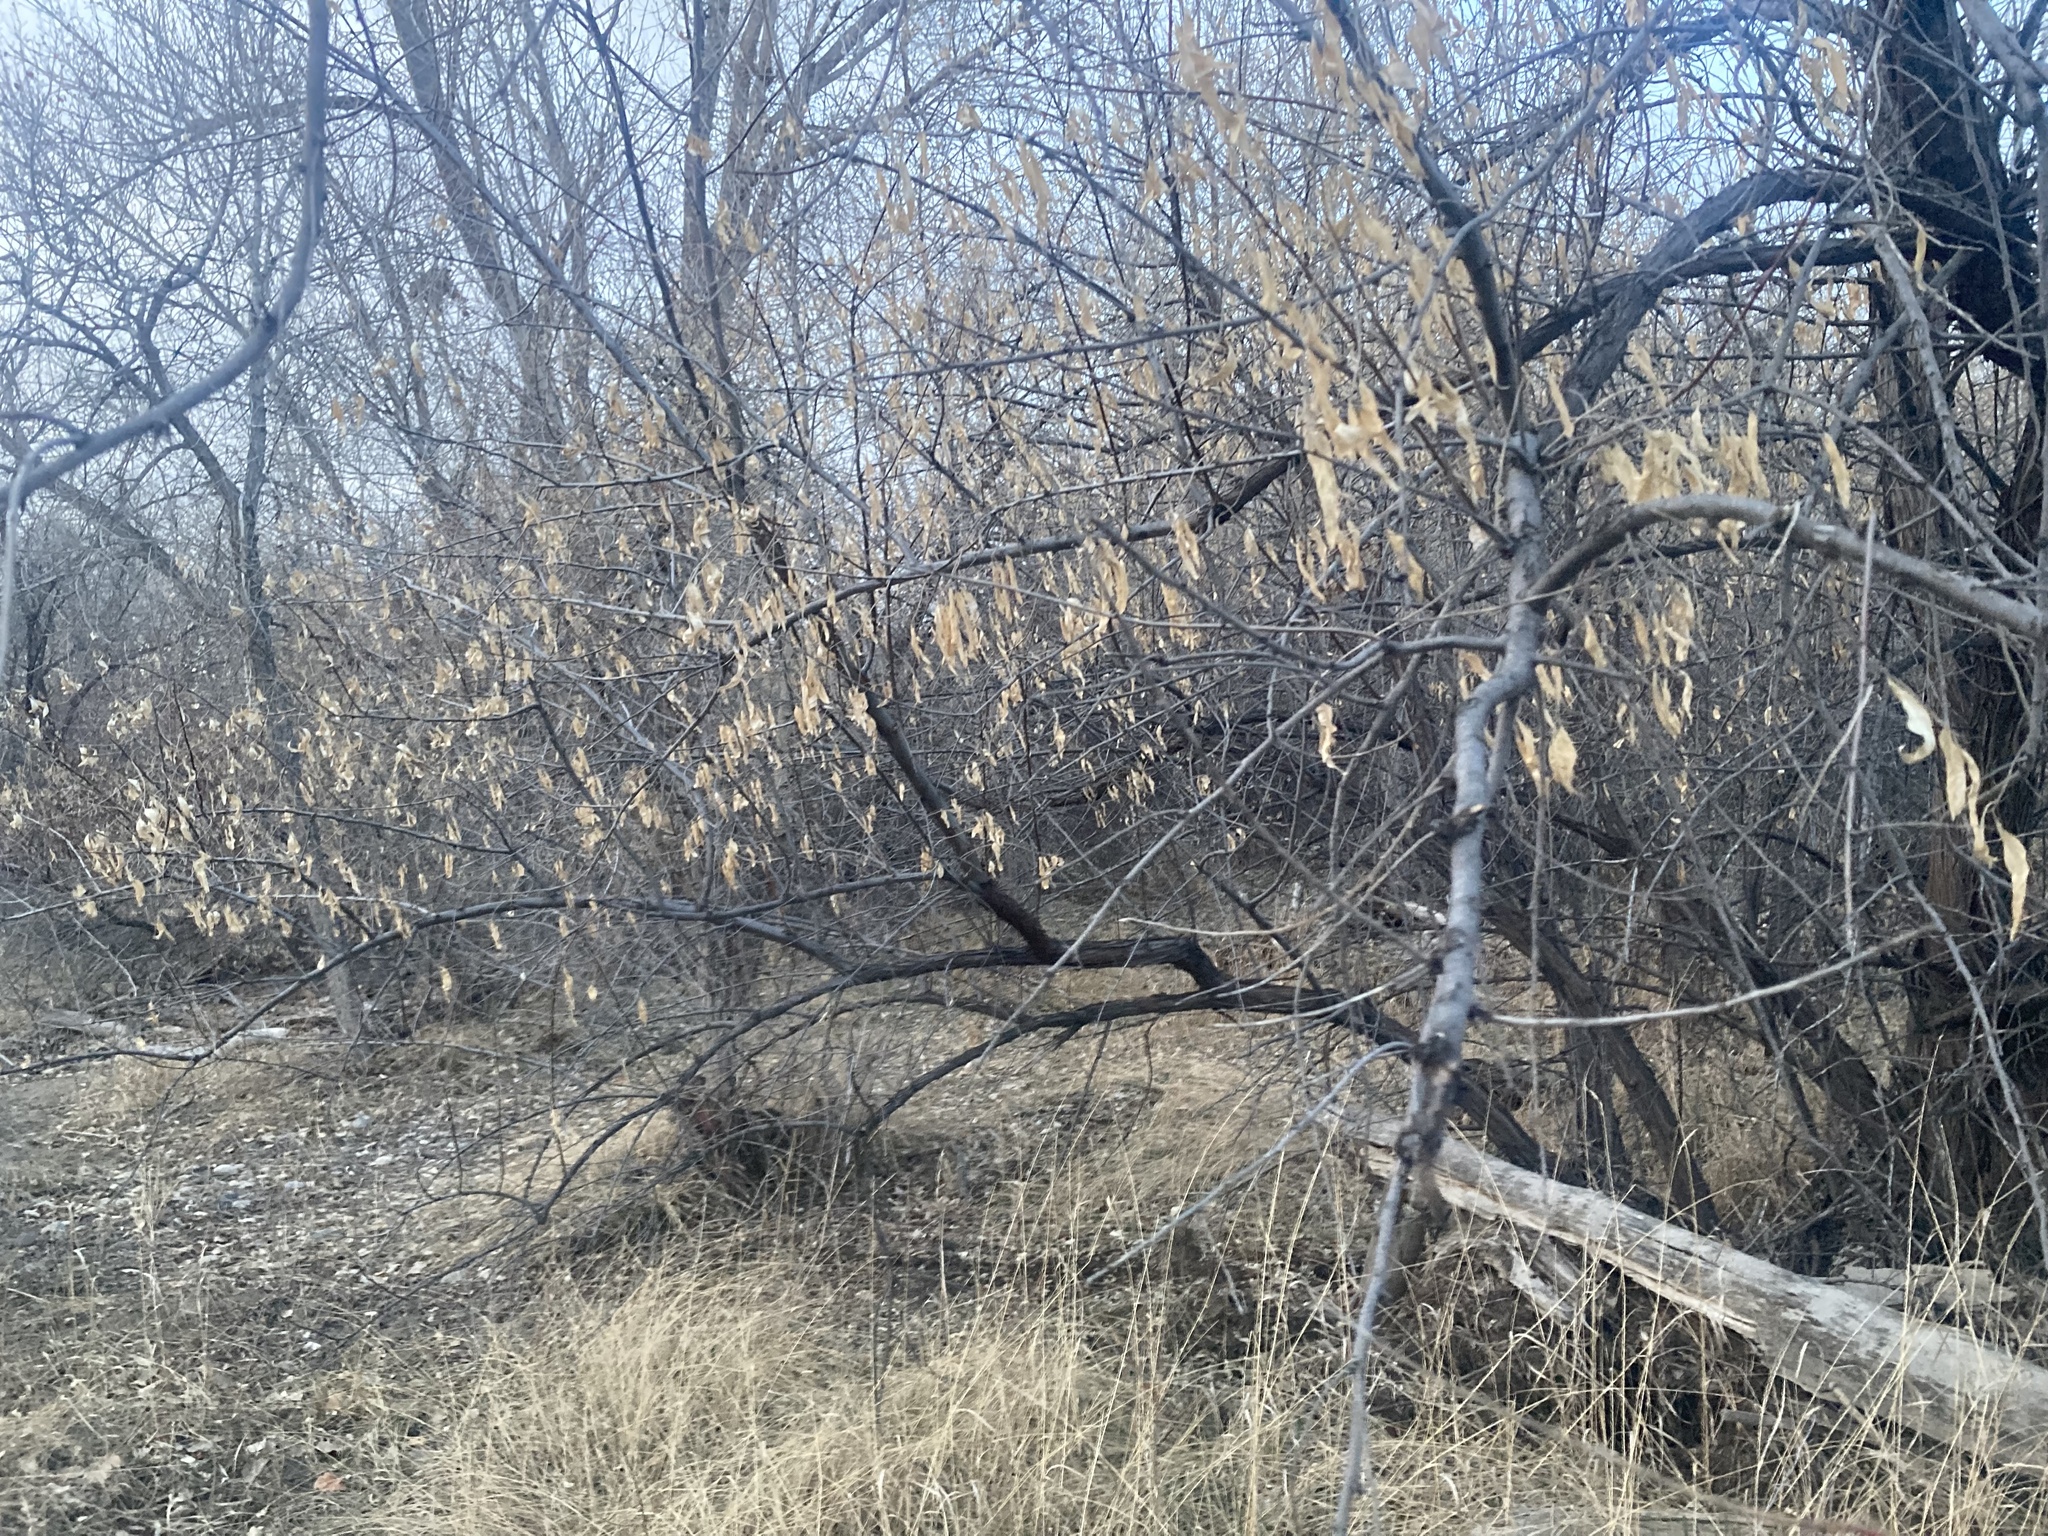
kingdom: Plantae
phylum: Tracheophyta
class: Magnoliopsida
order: Rosales
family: Elaeagnaceae
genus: Elaeagnus
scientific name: Elaeagnus angustifolia
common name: Russian olive
